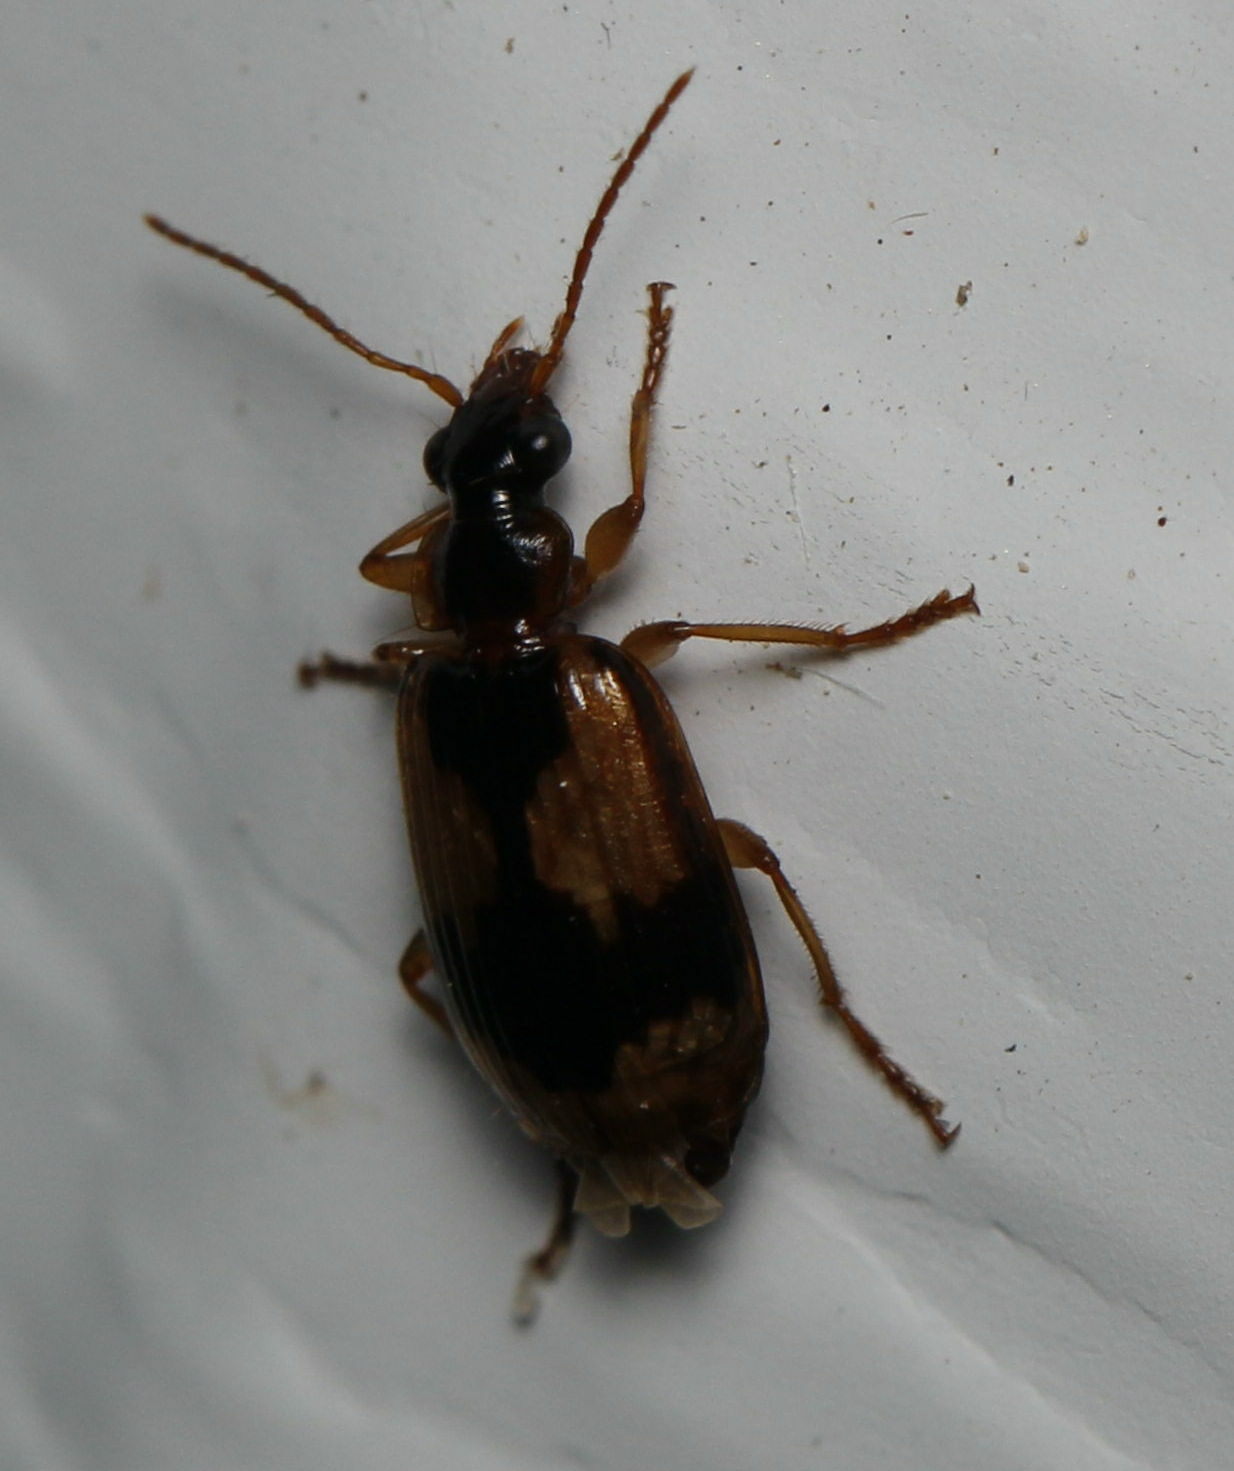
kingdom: Animalia
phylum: Arthropoda
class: Insecta
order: Coleoptera
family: Carabidae
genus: Lebia
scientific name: Lebia fuscata
